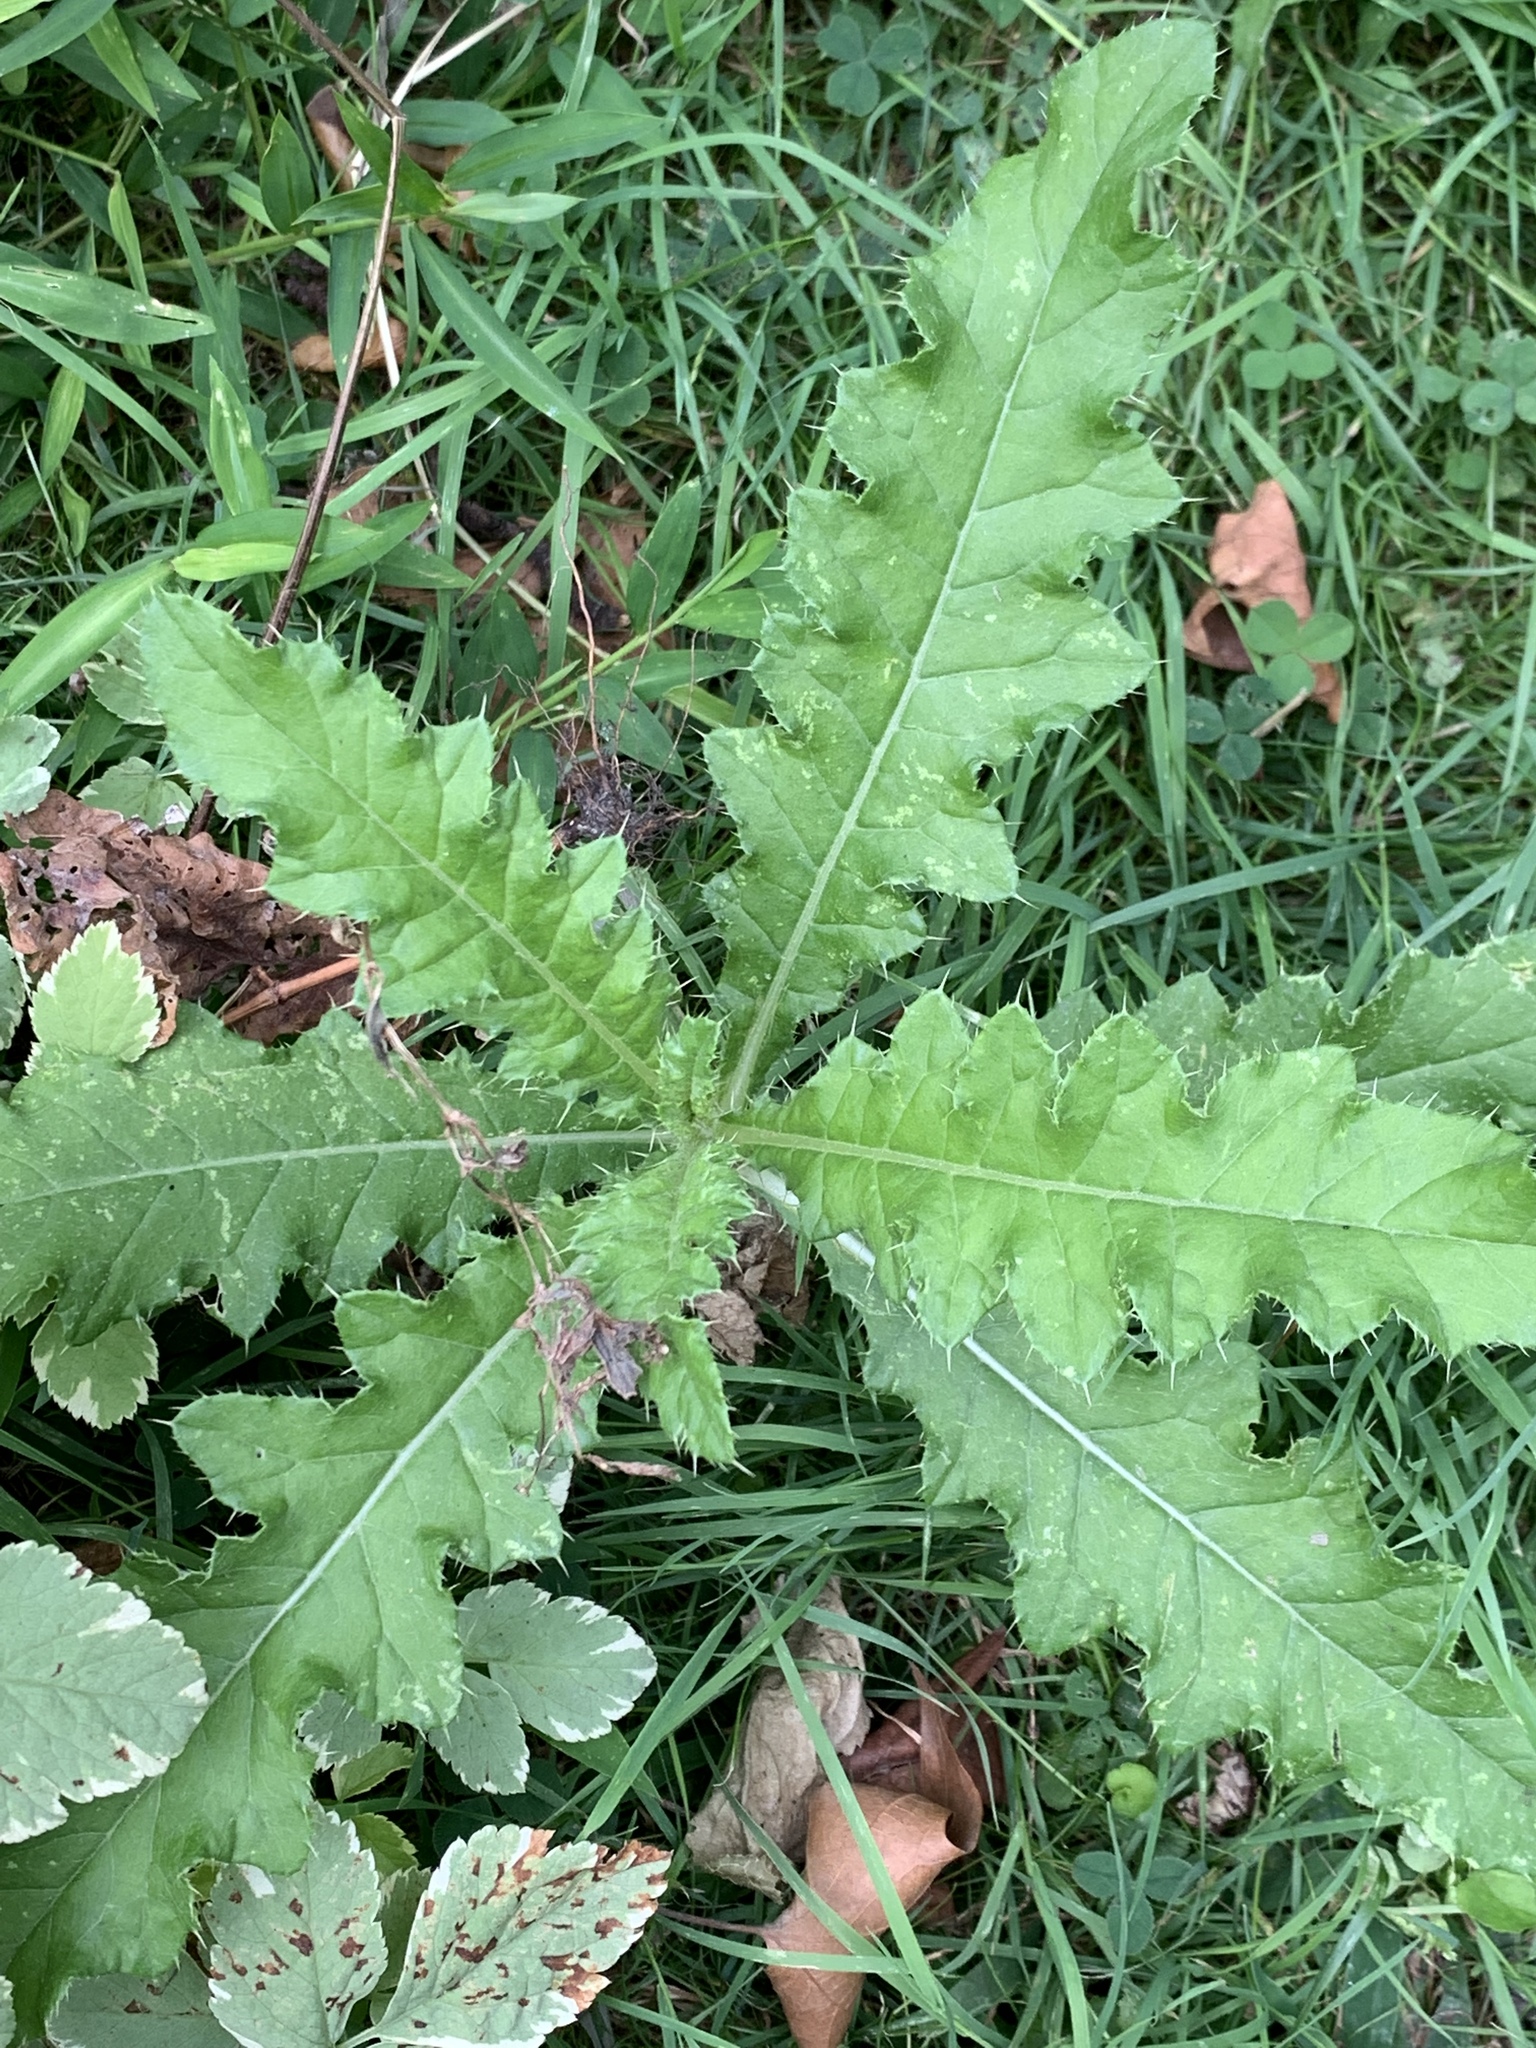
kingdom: Plantae
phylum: Tracheophyta
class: Magnoliopsida
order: Asterales
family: Asteraceae
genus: Cirsium
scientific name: Cirsium arvense
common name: Creeping thistle
